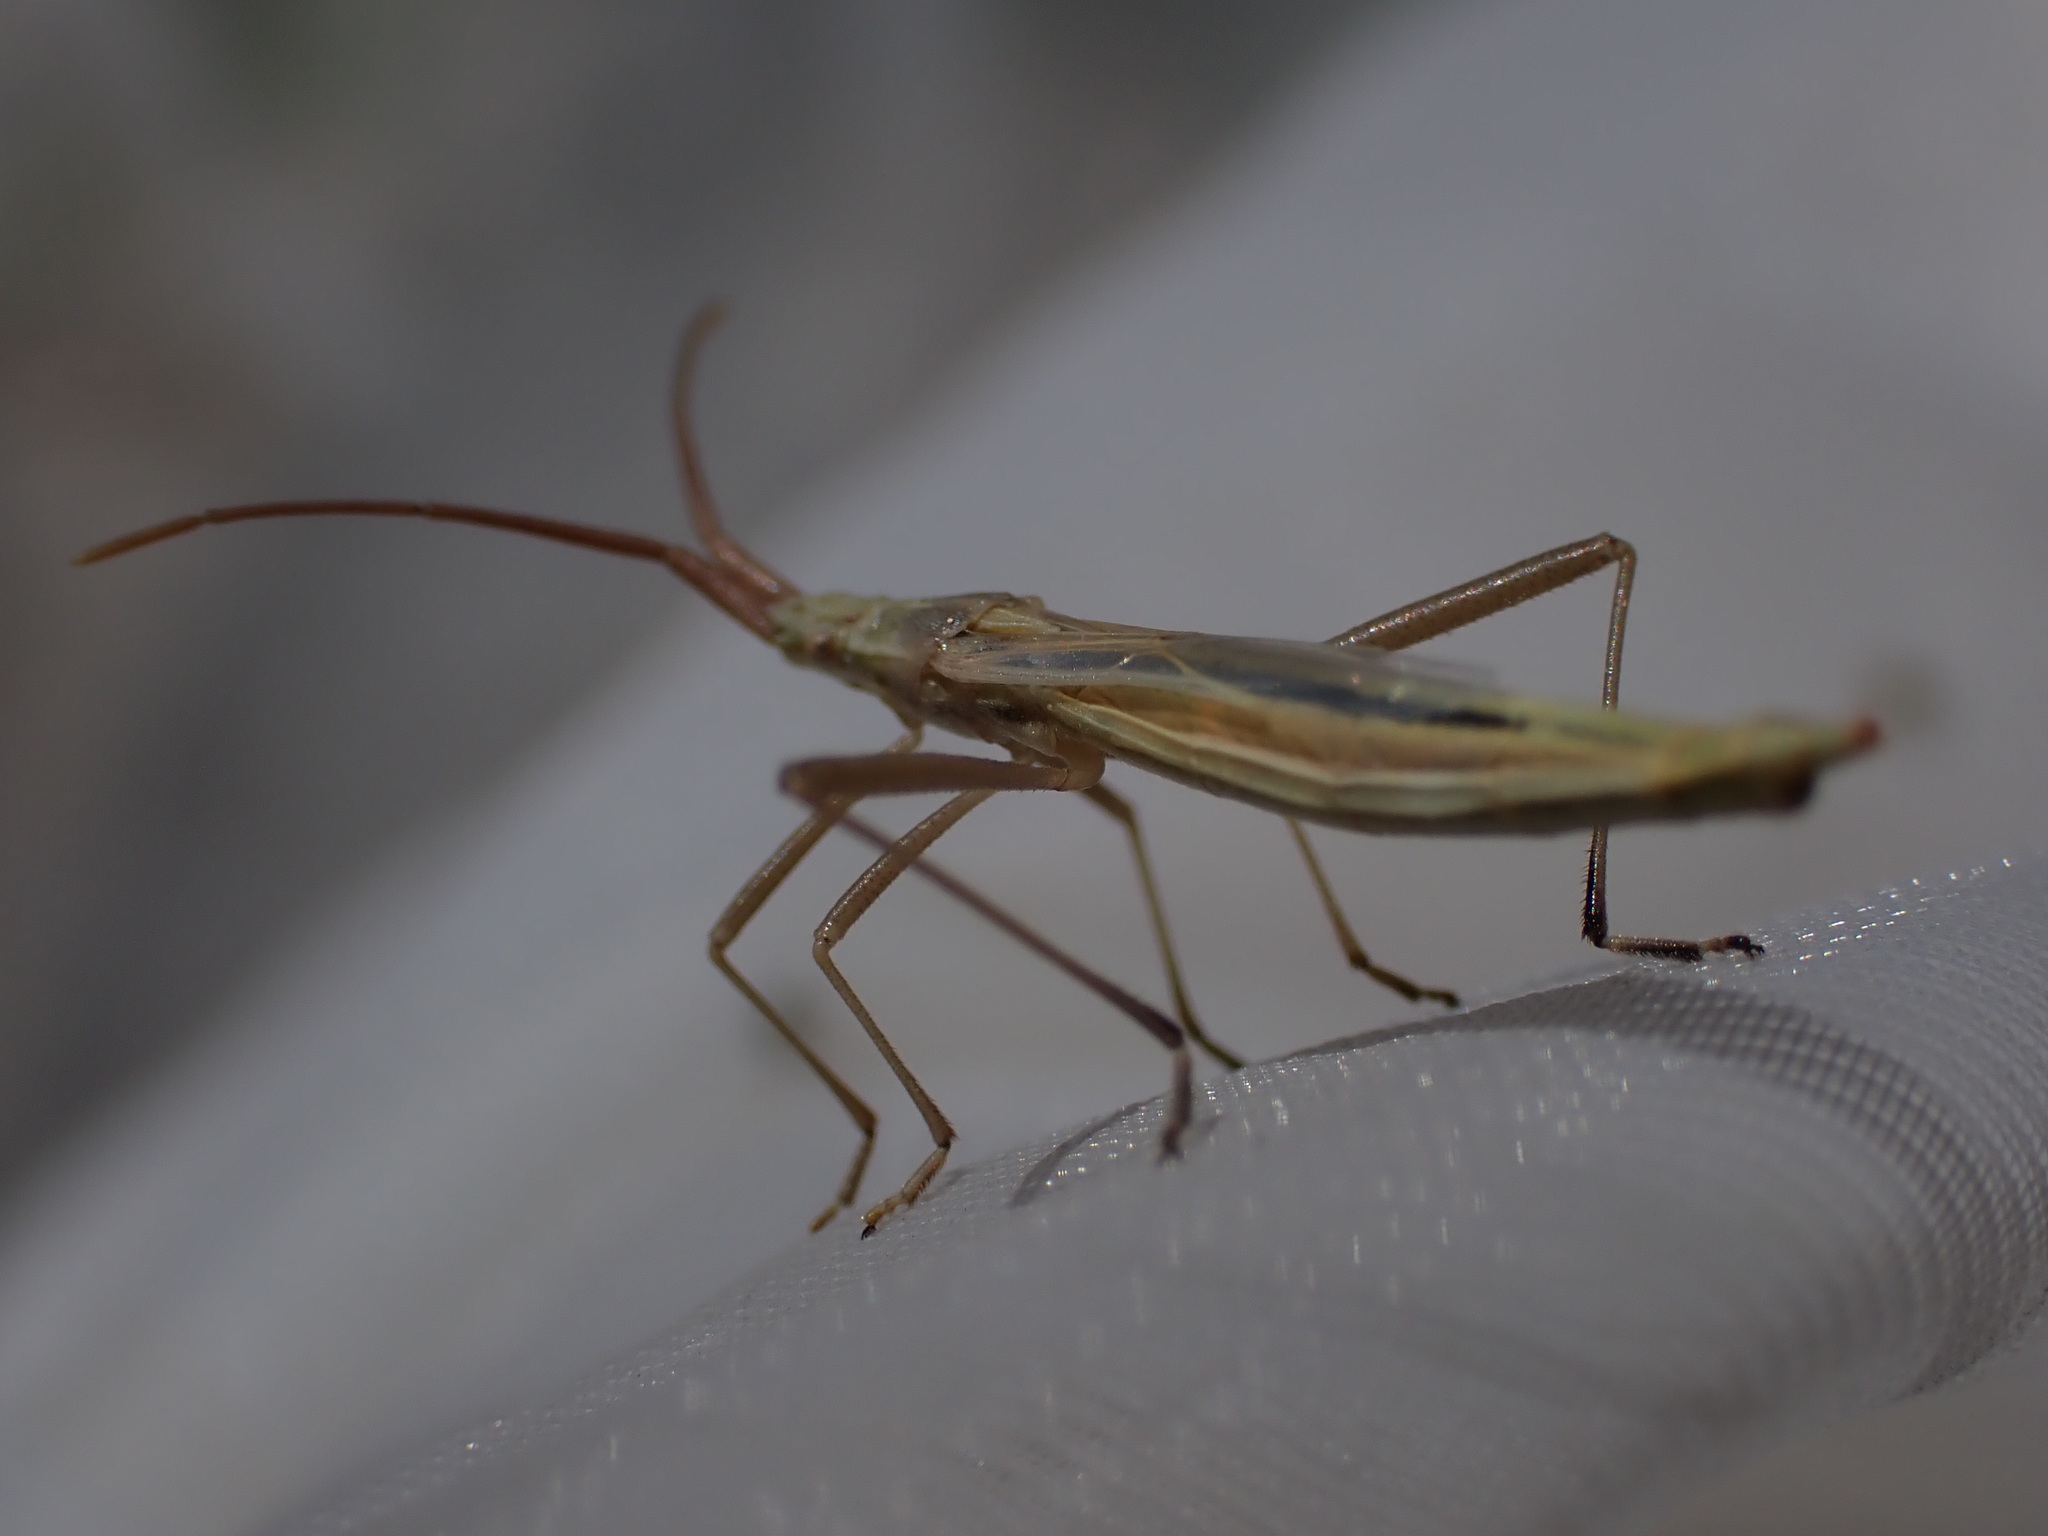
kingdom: Animalia
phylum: Arthropoda
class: Insecta
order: Hemiptera
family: Rhopalidae
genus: Chorosoma
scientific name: Chorosoma schillingii
